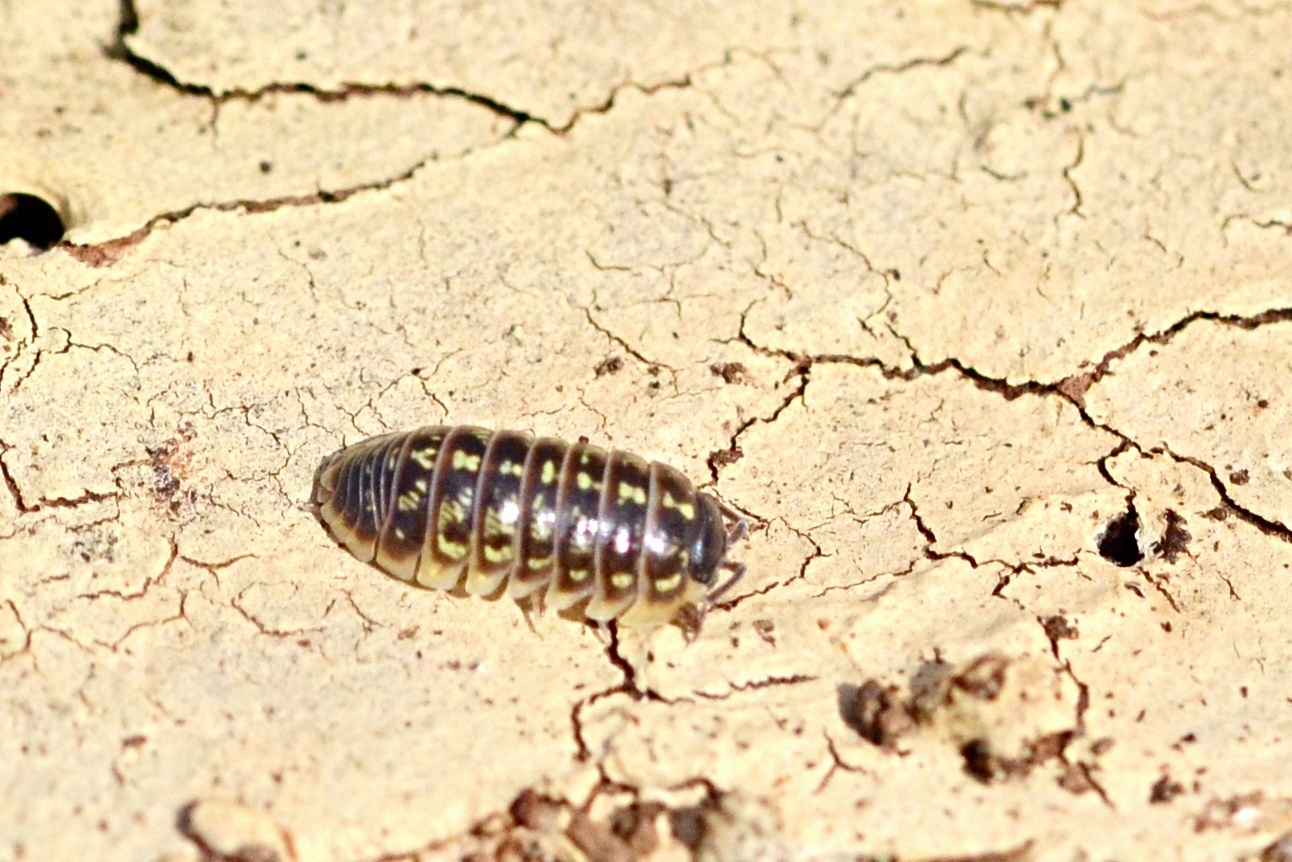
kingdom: Animalia
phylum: Arthropoda
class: Malacostraca
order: Isopoda
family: Armadillidiidae
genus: Armadillidium
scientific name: Armadillidium versicolor
